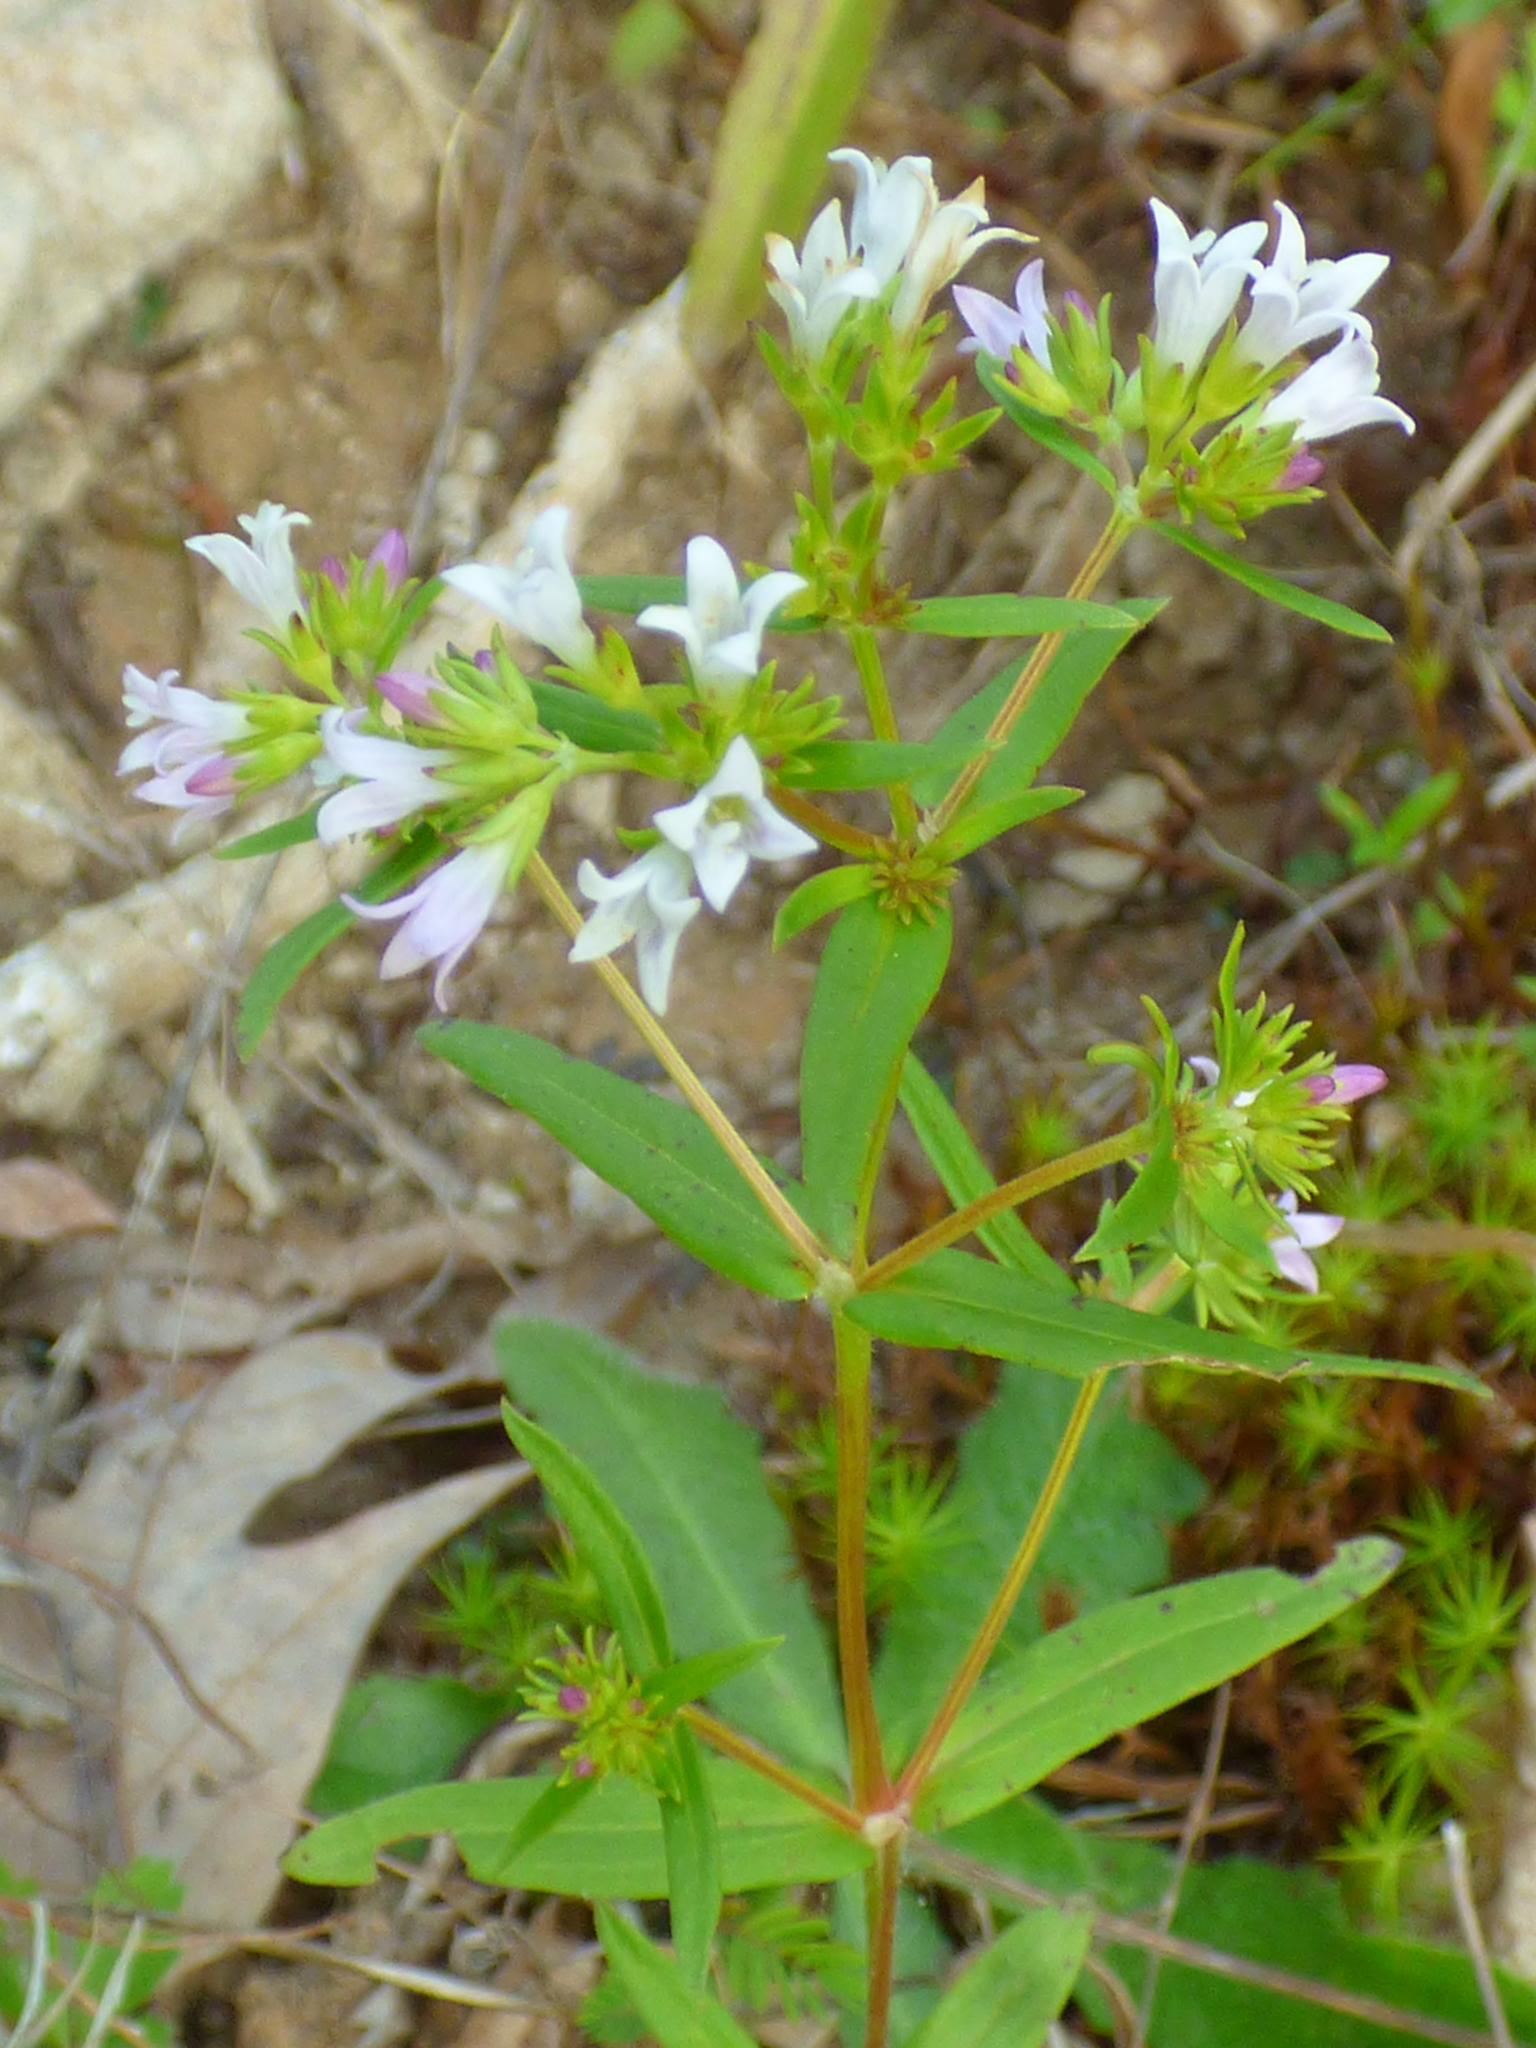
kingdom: Plantae
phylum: Tracheophyta
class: Magnoliopsida
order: Gentianales
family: Rubiaceae
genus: Houstonia
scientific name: Houstonia longifolia
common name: Long-leaved bluets
